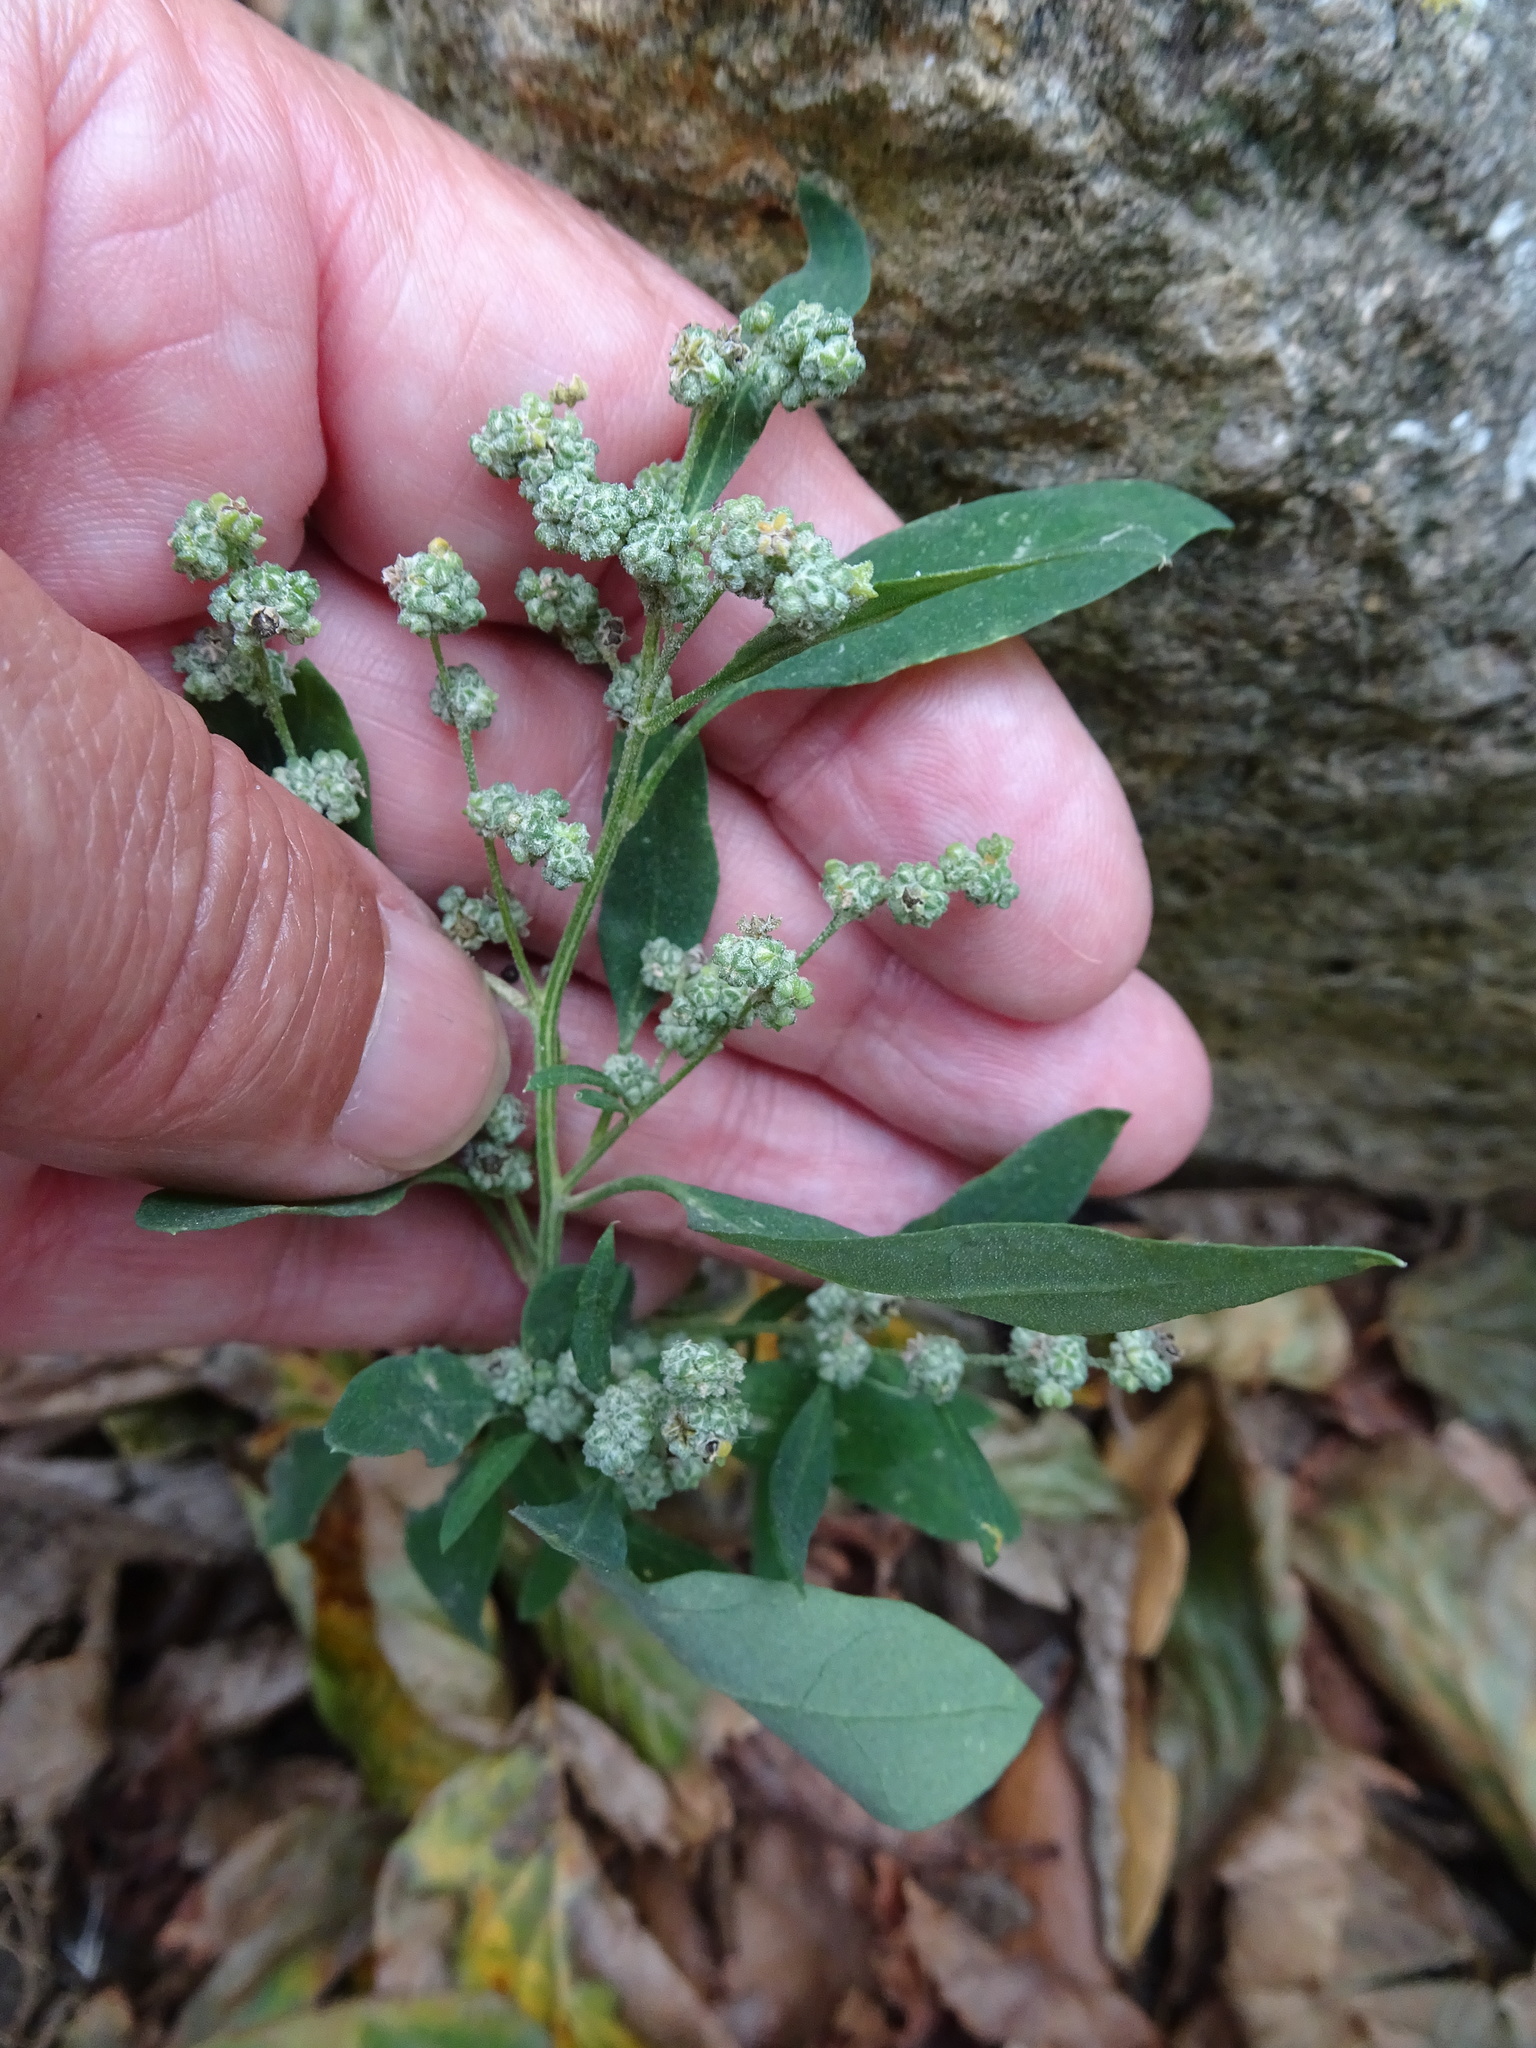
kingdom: Plantae
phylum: Tracheophyta
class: Magnoliopsida
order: Caryophyllales
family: Amaranthaceae
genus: Chenopodium
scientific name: Chenopodium album
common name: Fat-hen
